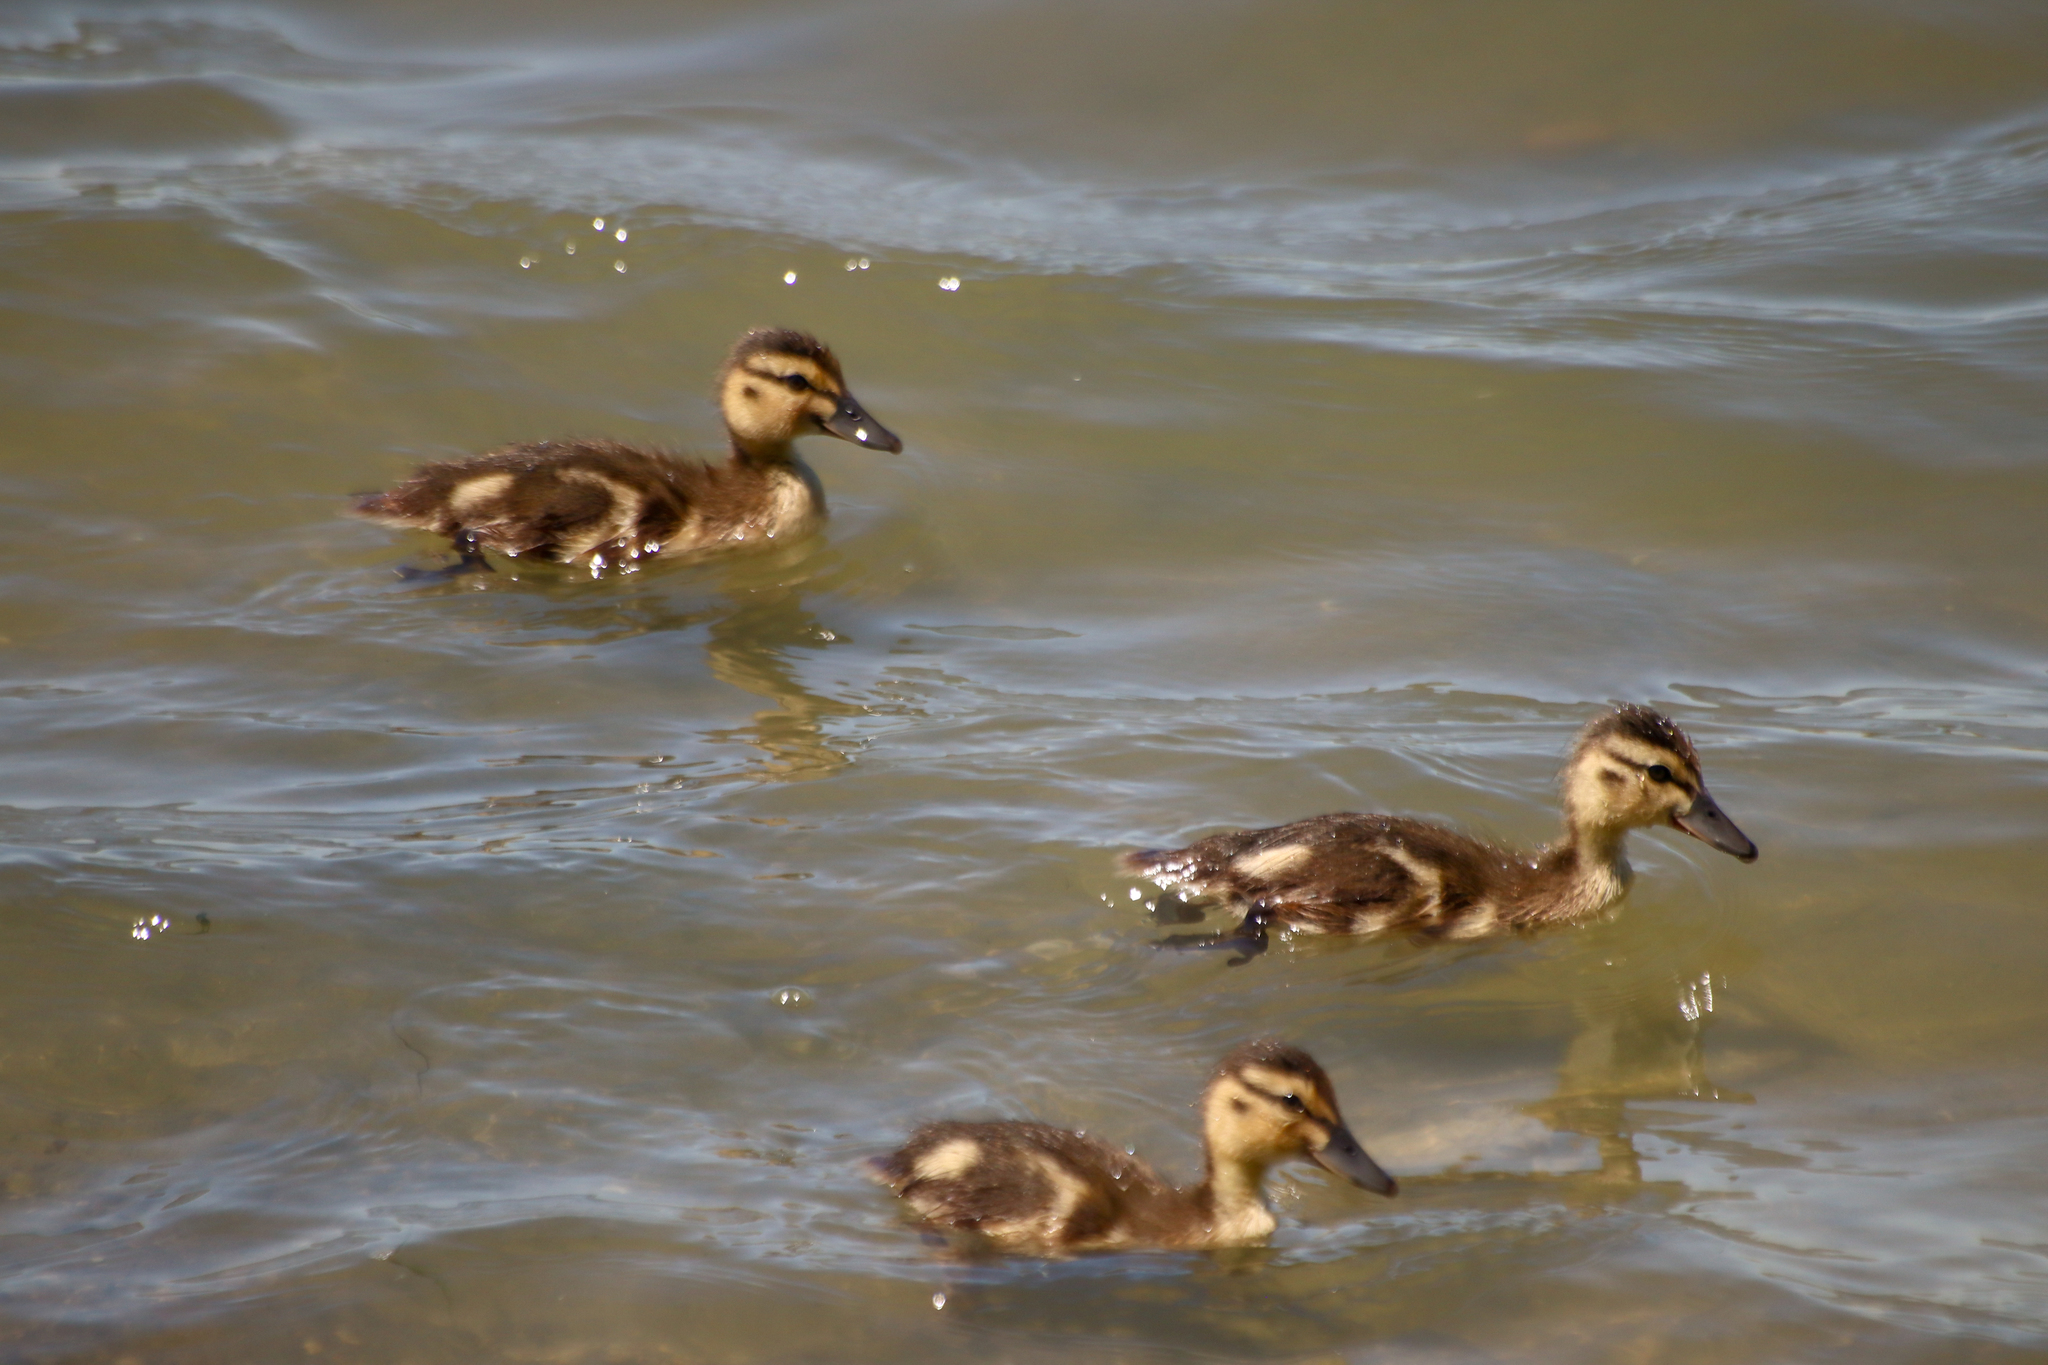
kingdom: Animalia
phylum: Chordata
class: Aves
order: Anseriformes
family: Anatidae
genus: Anas
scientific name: Anas platyrhynchos
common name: Mallard
